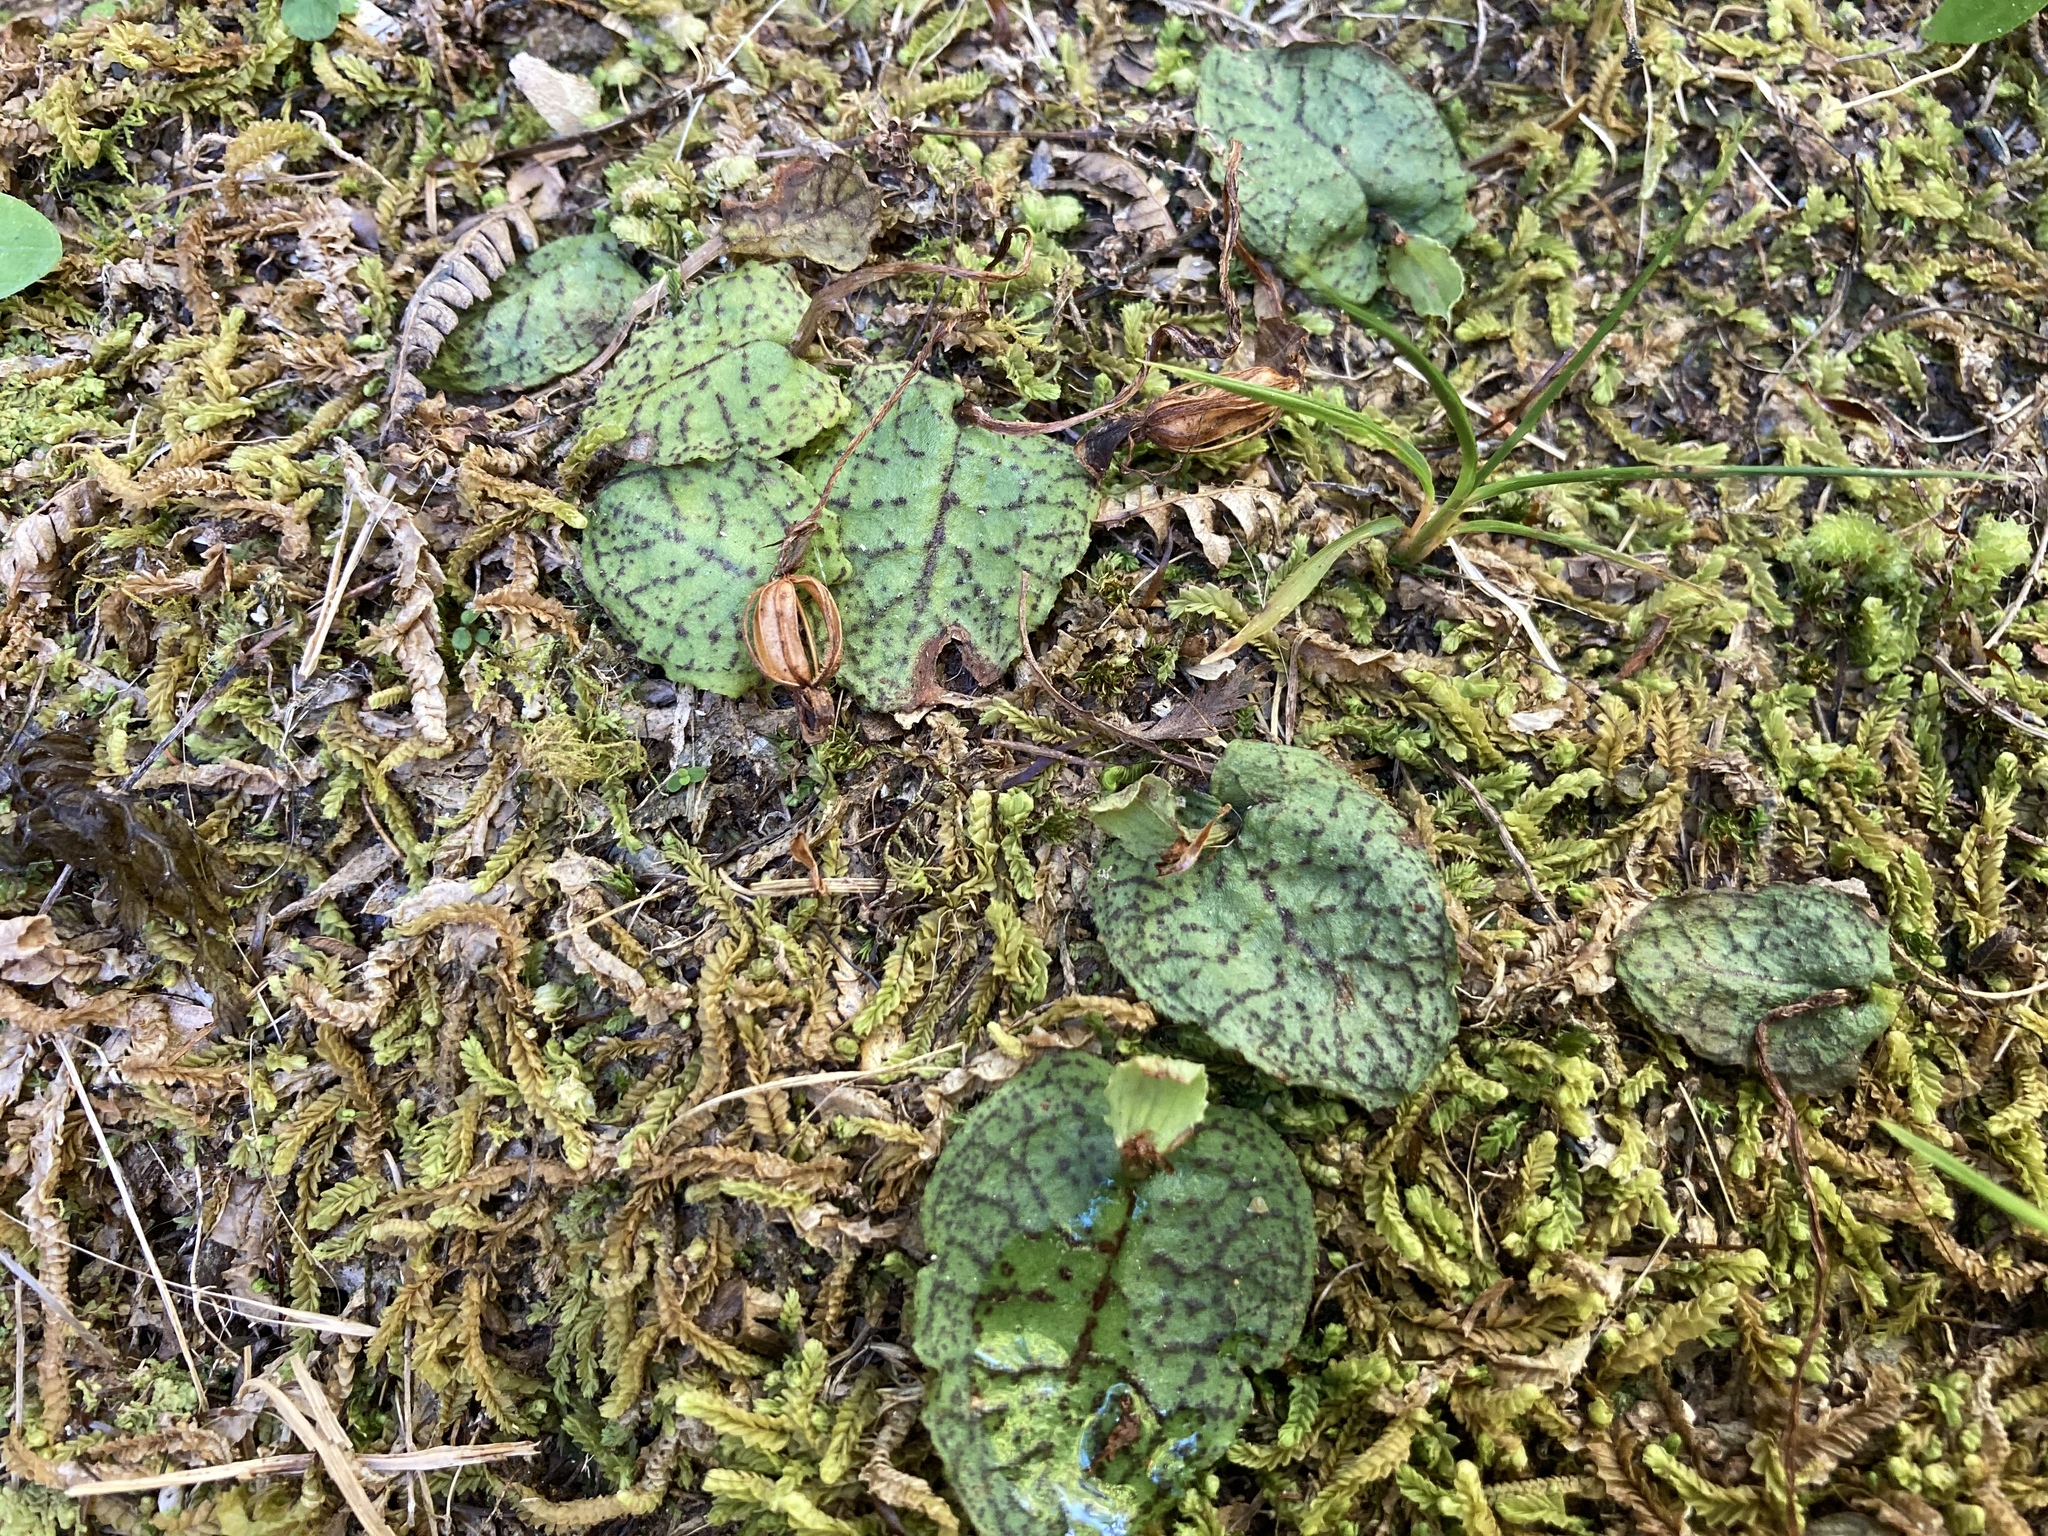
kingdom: Plantae
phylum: Tracheophyta
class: Liliopsida
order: Asparagales
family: Orchidaceae
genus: Corybas
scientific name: Corybas oblongus
